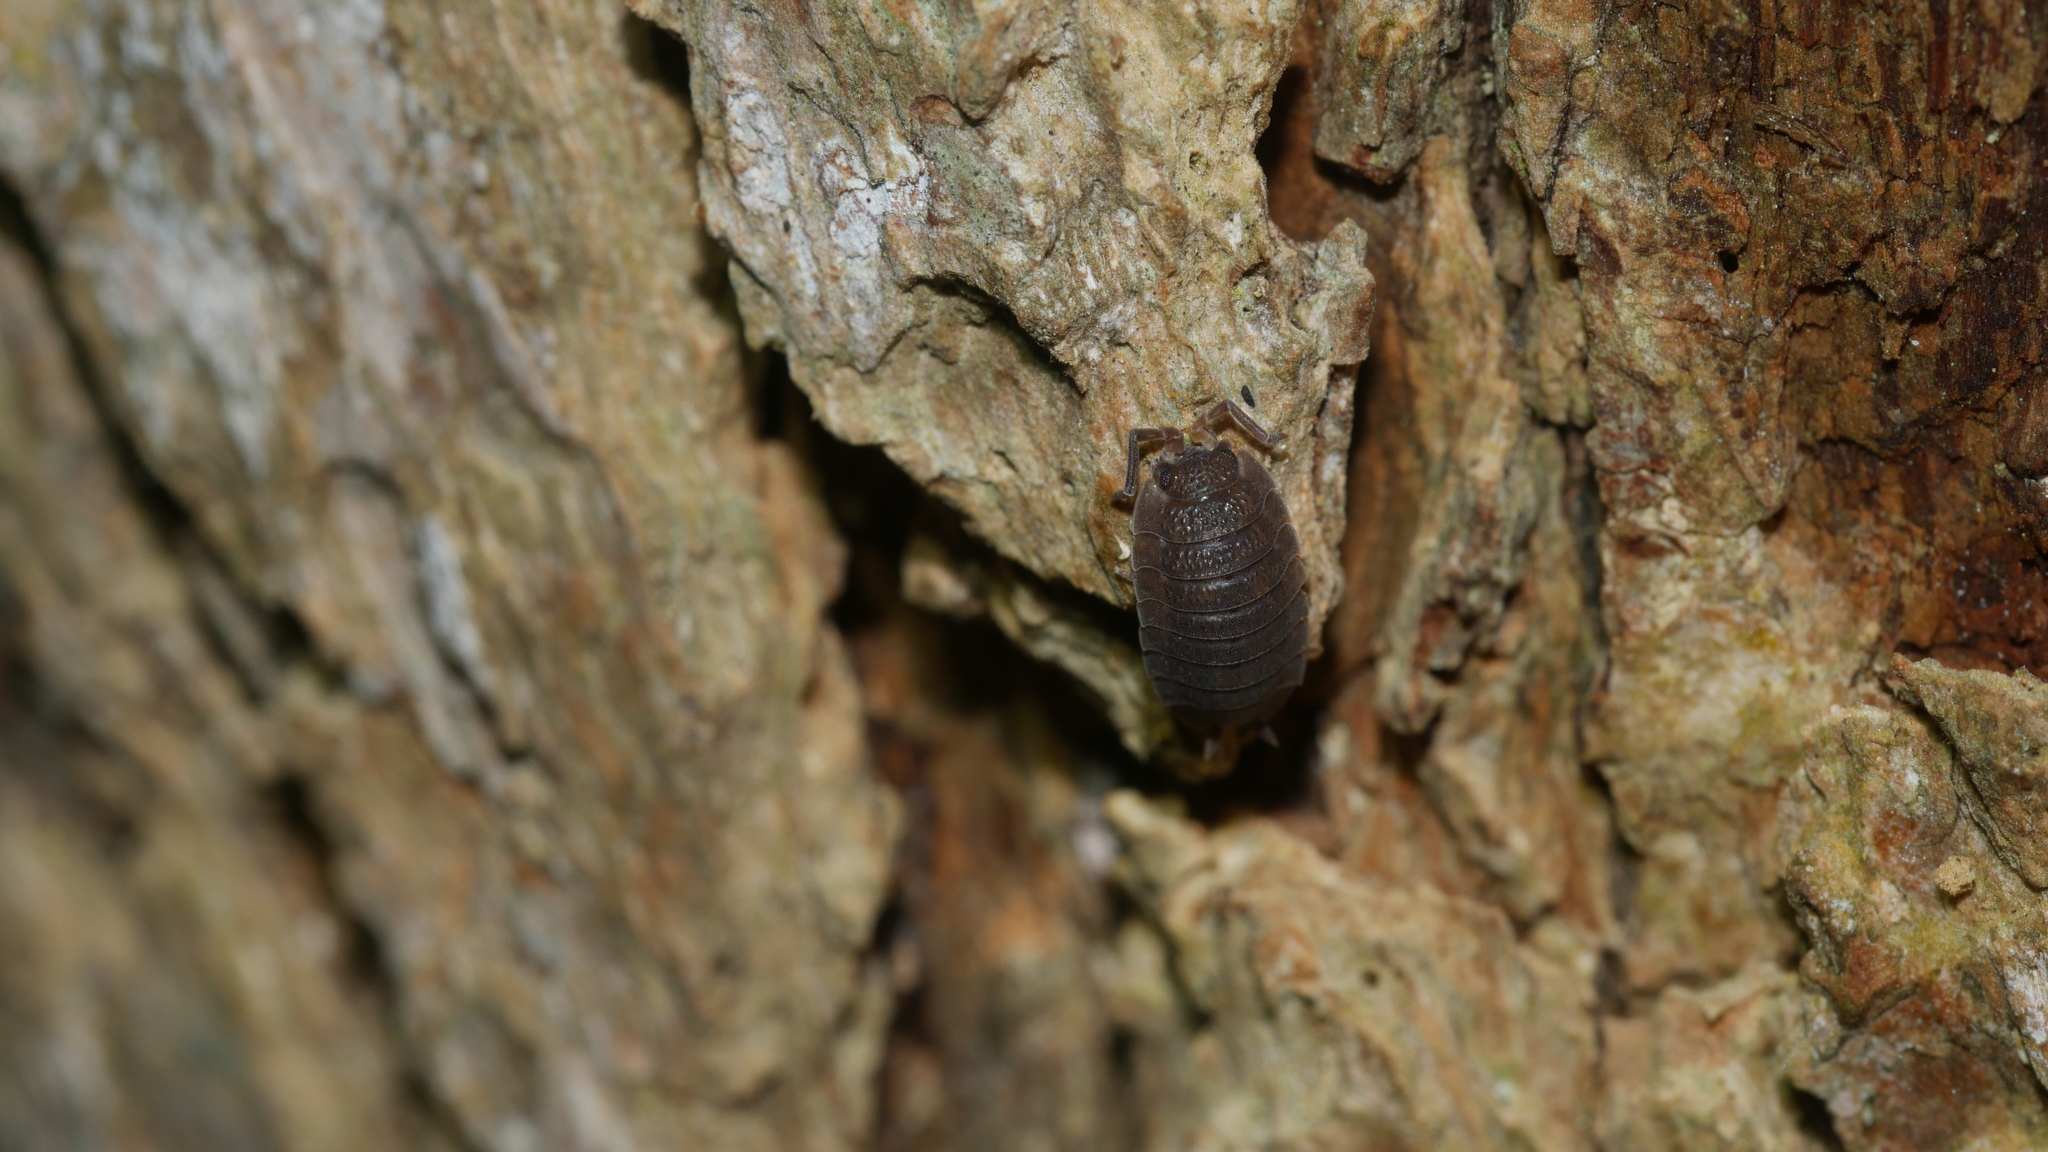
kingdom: Animalia
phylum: Arthropoda
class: Malacostraca
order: Isopoda
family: Porcellionidae
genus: Porcellio
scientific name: Porcellio scaber
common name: Common rough woodlouse
